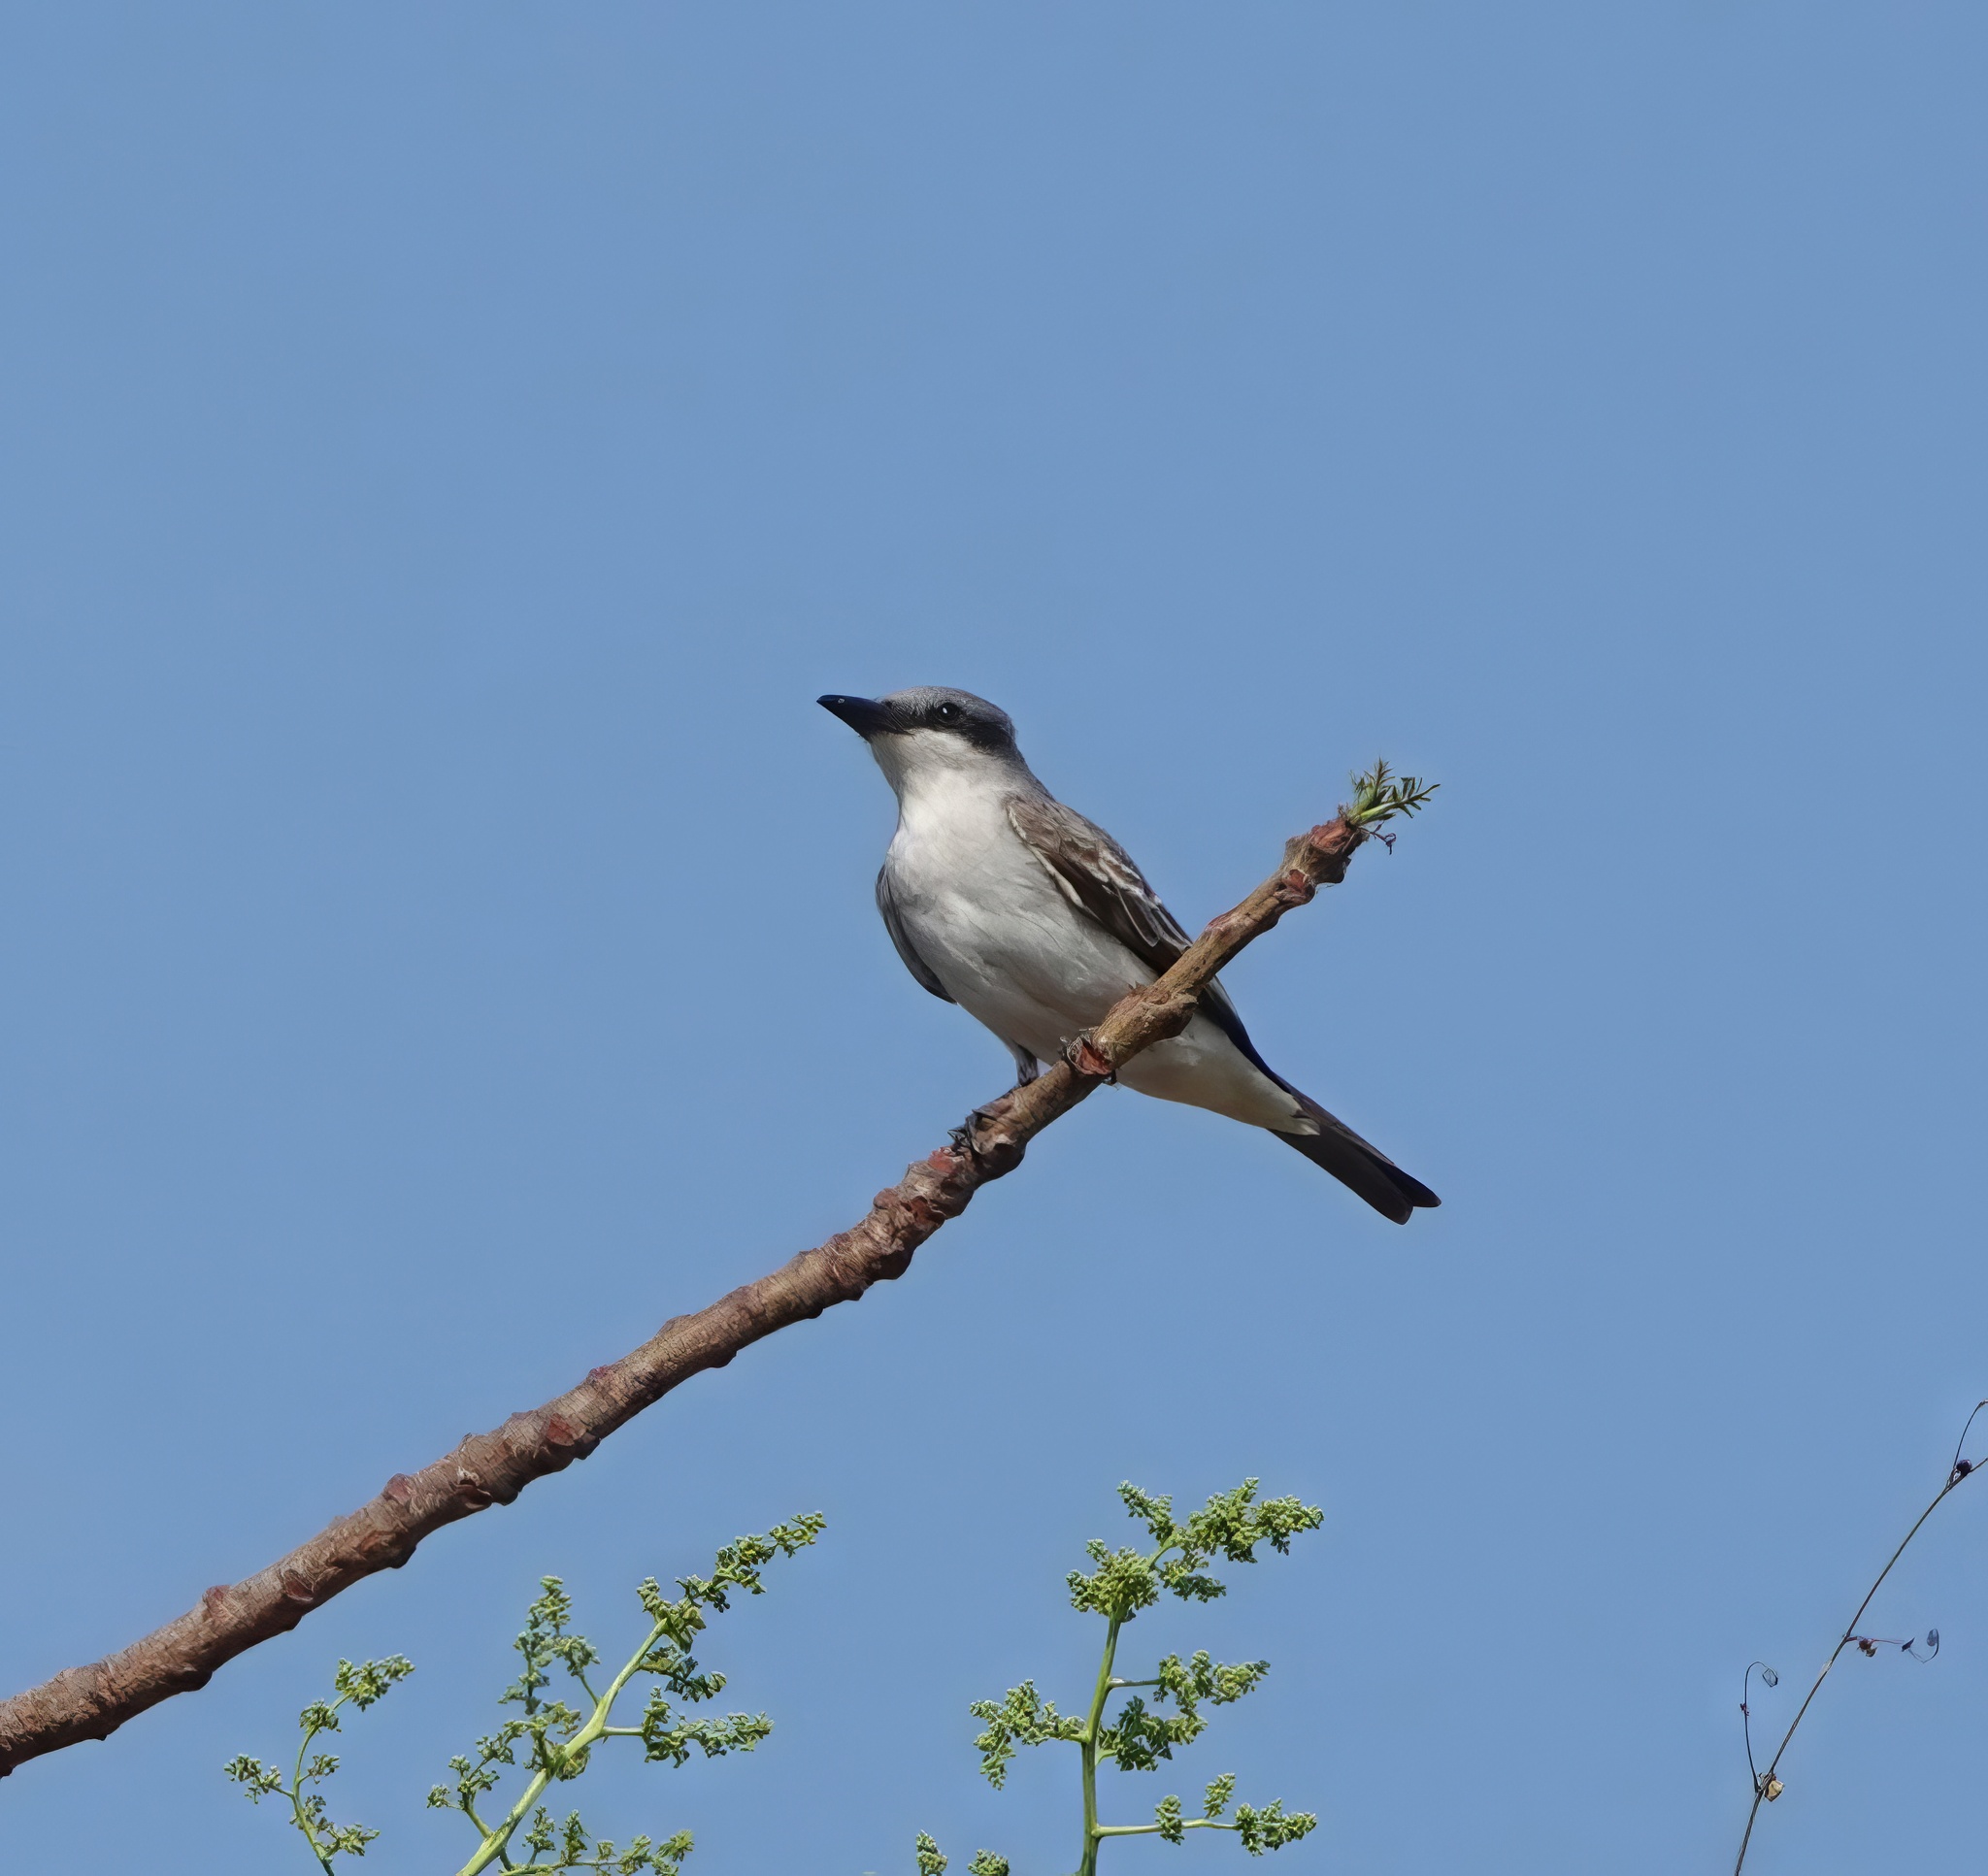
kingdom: Animalia
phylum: Chordata
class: Aves
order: Passeriformes
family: Tyrannidae
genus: Tyrannus
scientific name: Tyrannus dominicensis
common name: Gray kingbird
